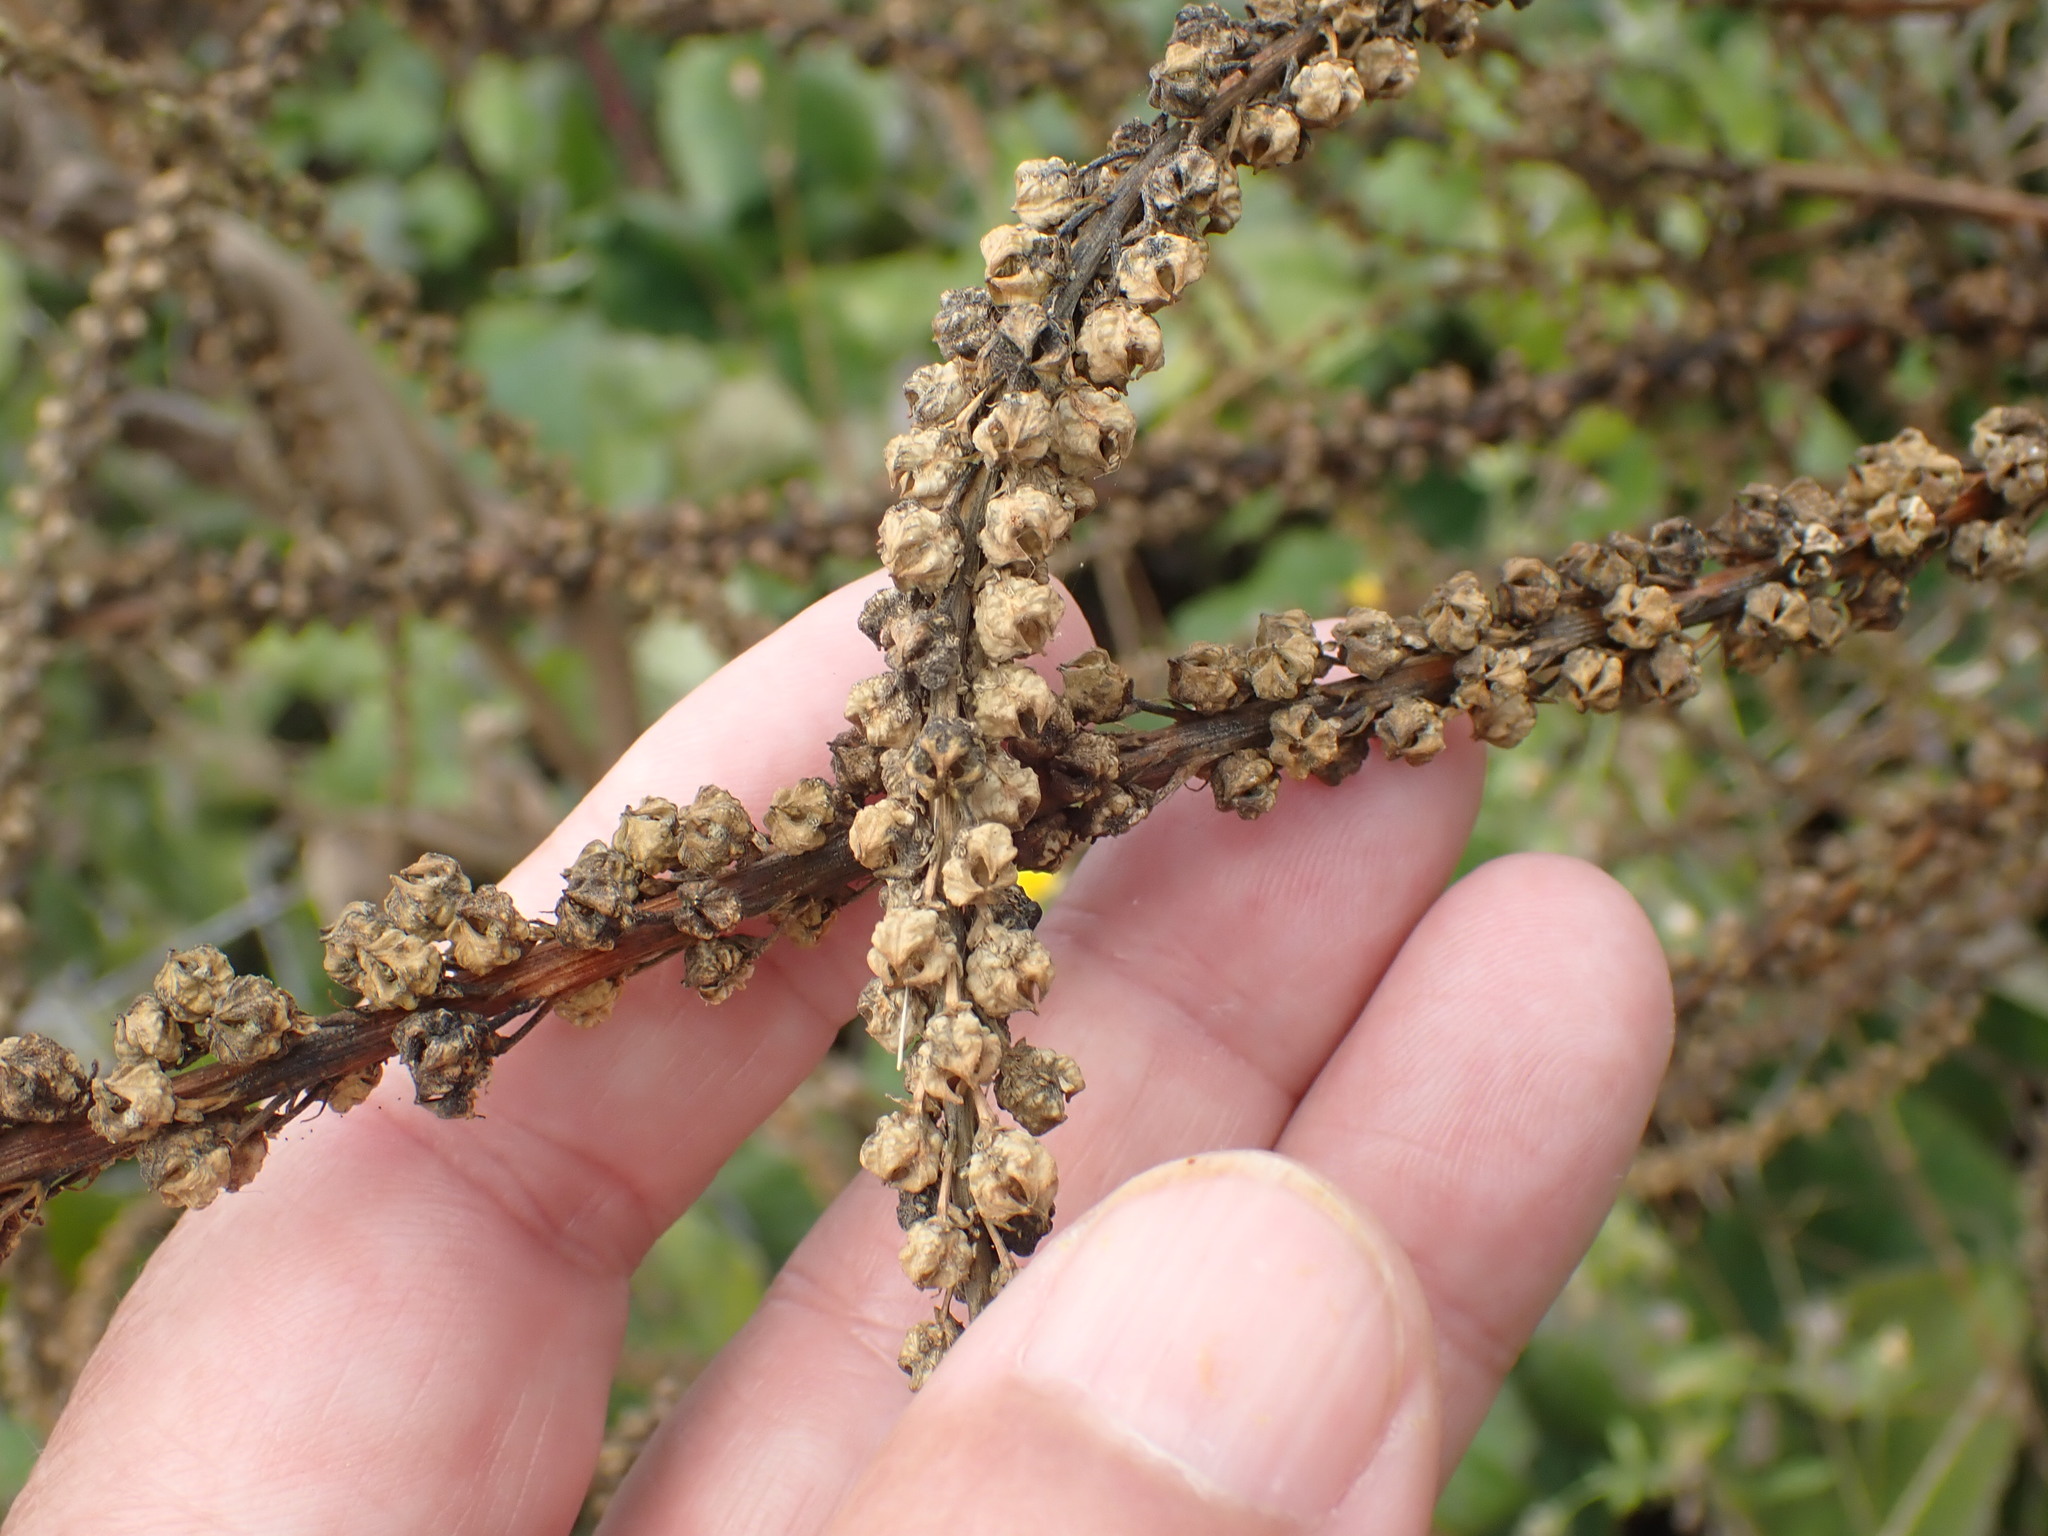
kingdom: Plantae
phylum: Tracheophyta
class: Magnoliopsida
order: Brassicales
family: Resedaceae
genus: Reseda
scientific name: Reseda luteola
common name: Weld
